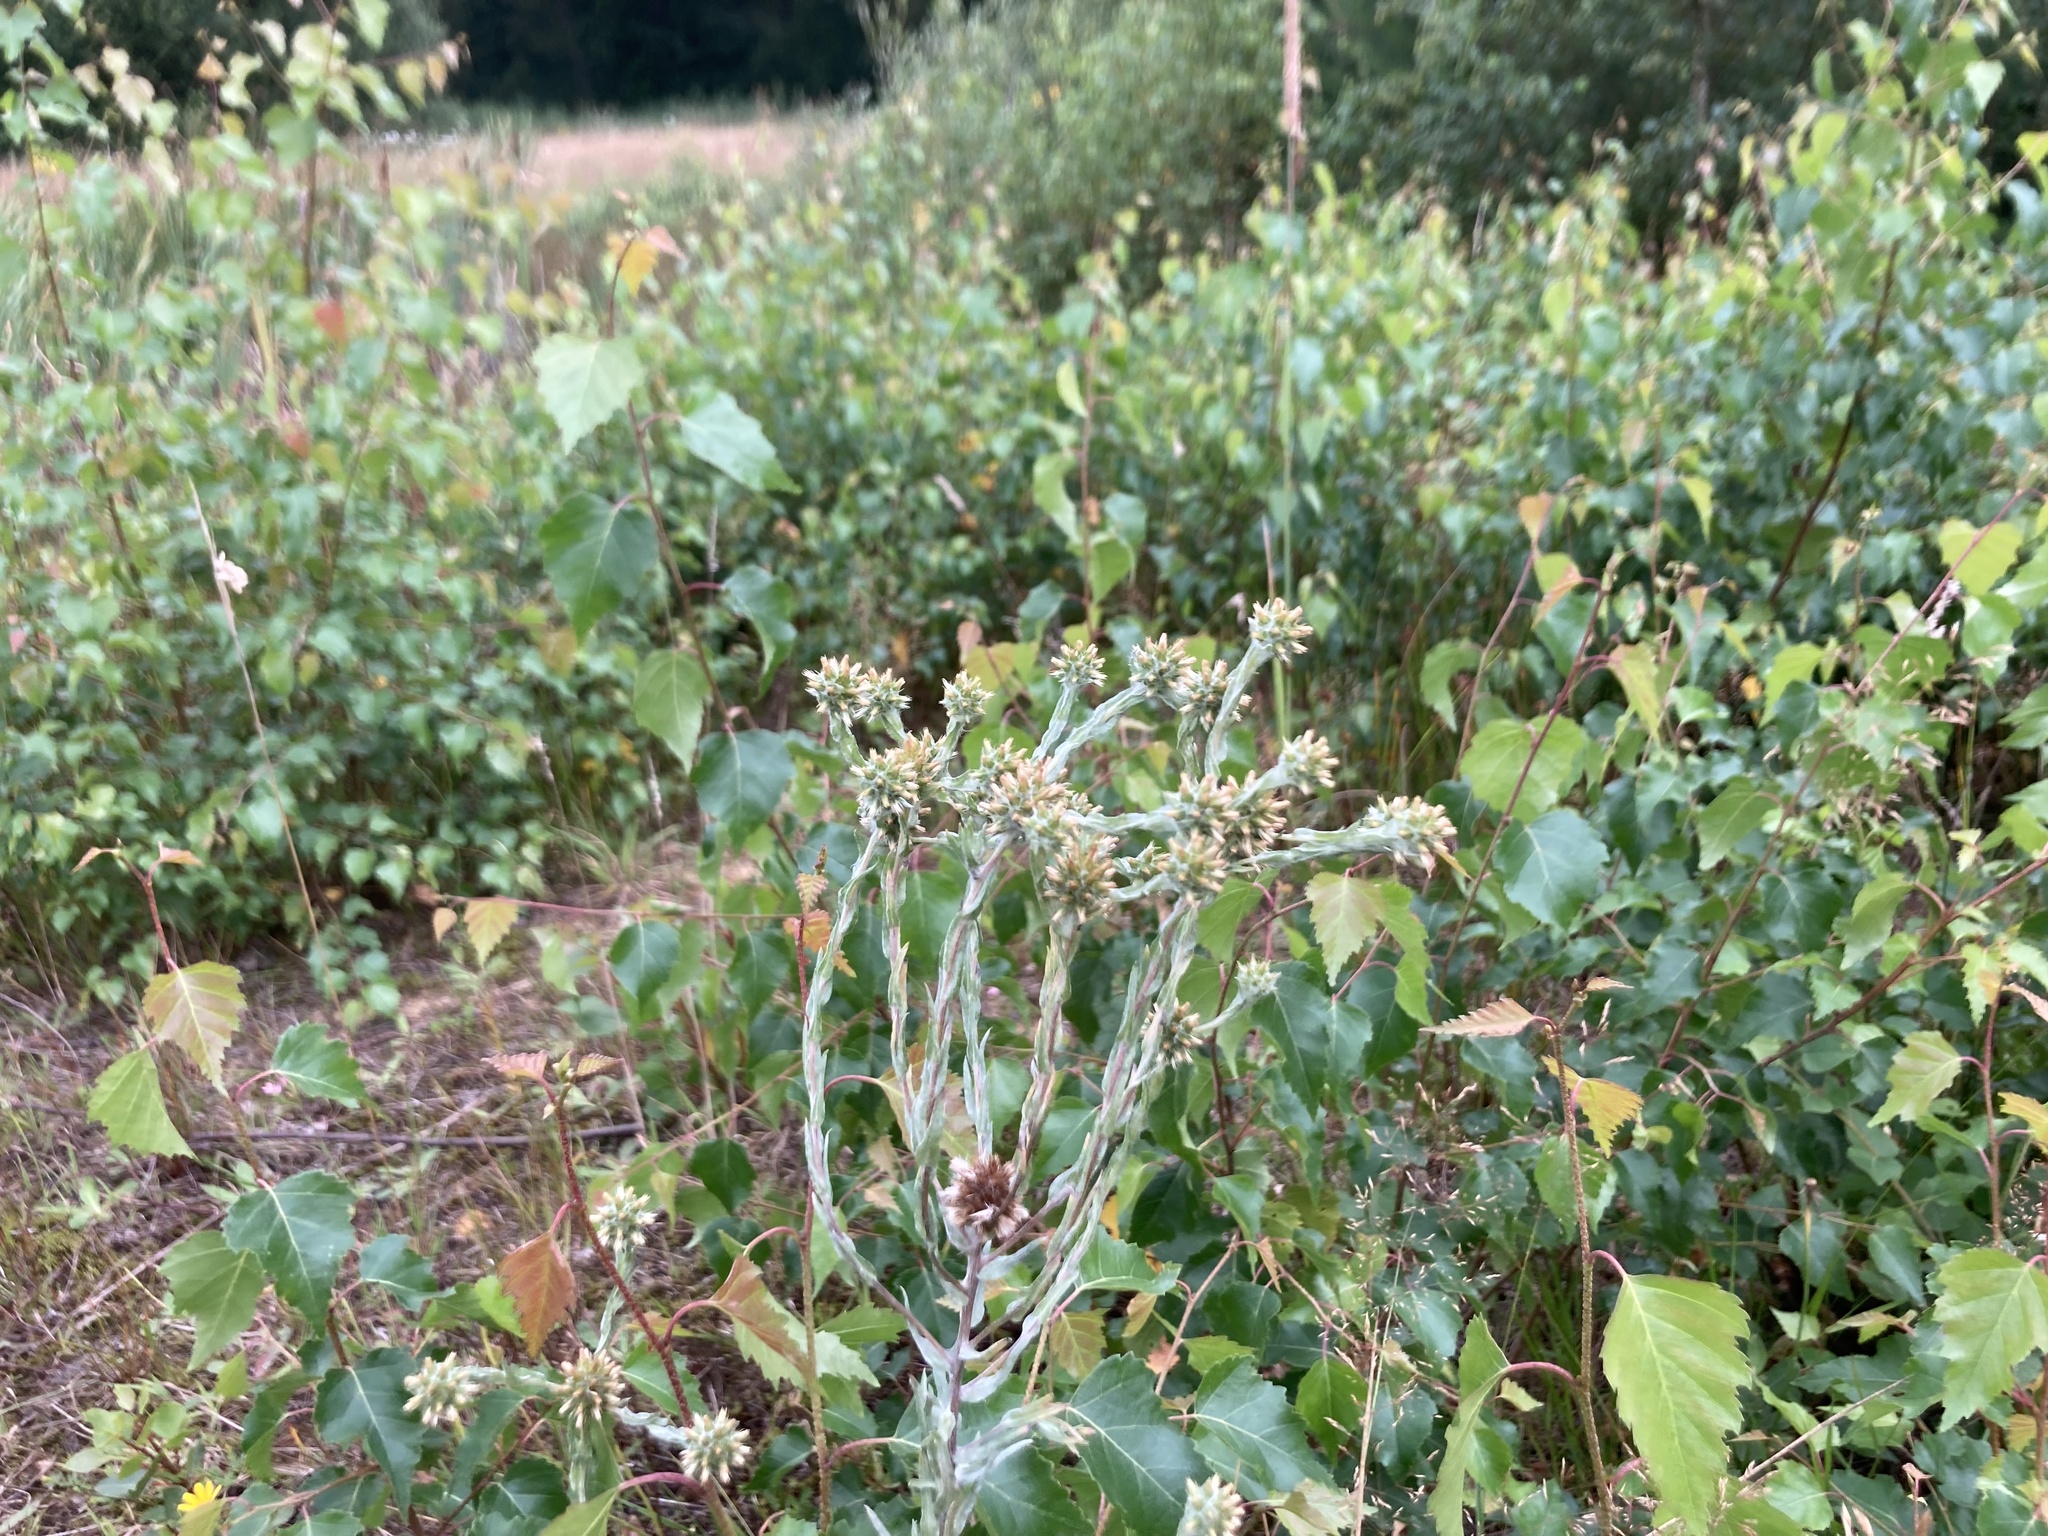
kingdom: Plantae
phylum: Tracheophyta
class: Magnoliopsida
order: Asterales
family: Asteraceae
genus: Filago
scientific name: Filago germanica
